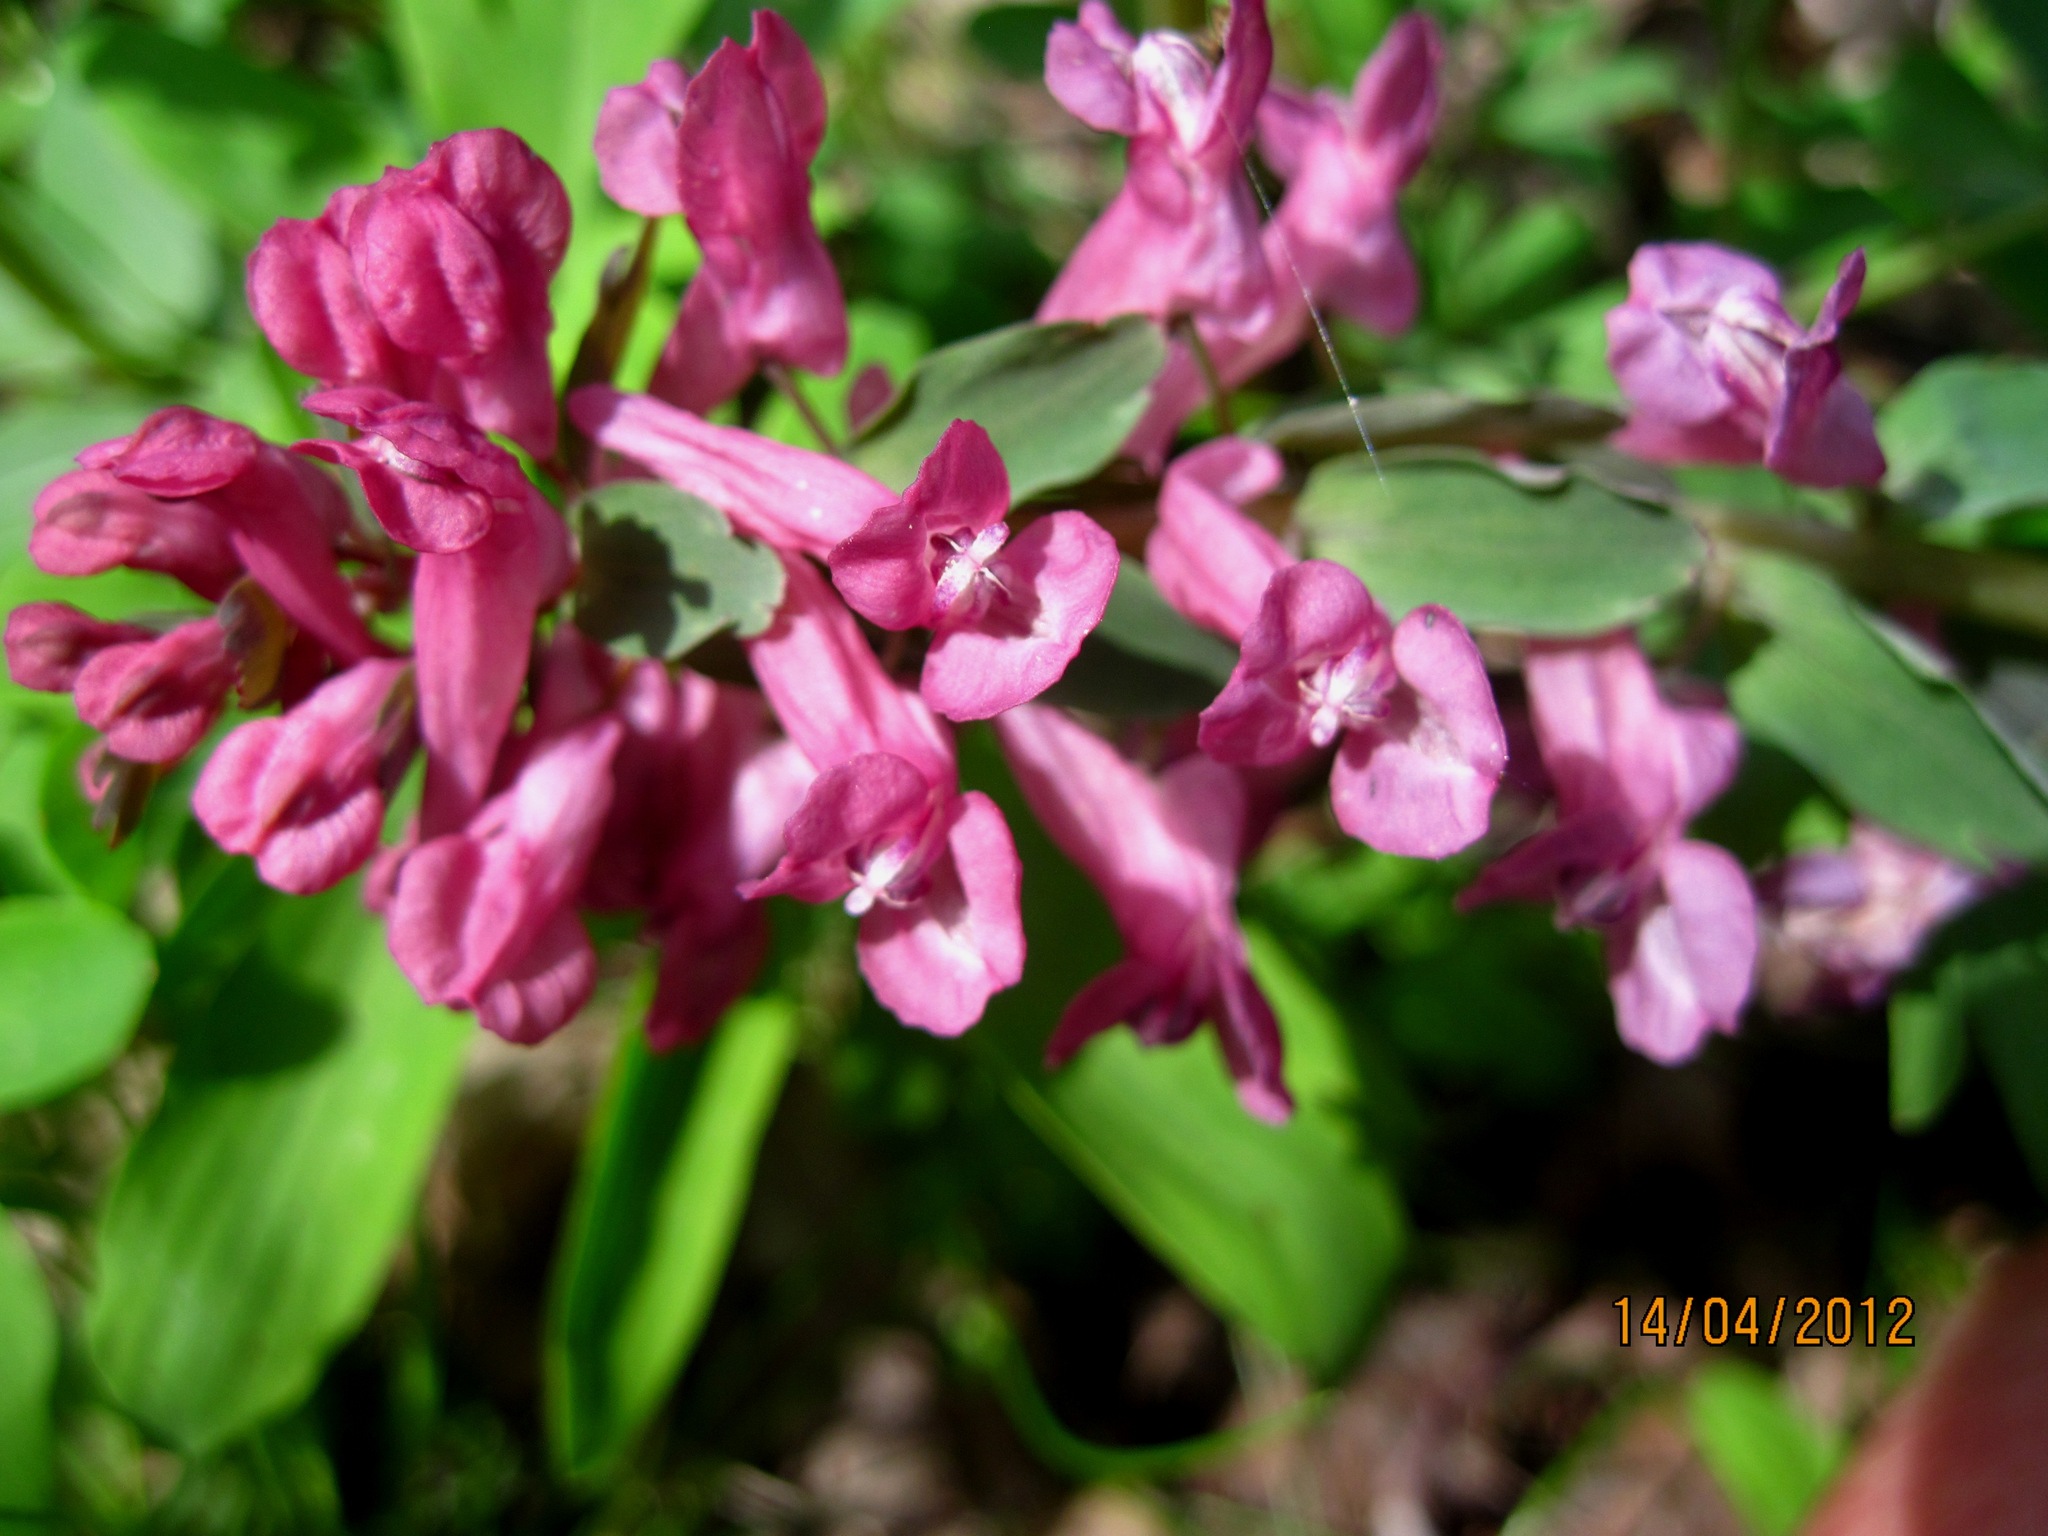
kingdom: Plantae
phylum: Tracheophyta
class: Magnoliopsida
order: Ranunculales
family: Papaveraceae
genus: Corydalis
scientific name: Corydalis solida
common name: Bird-in-a-bush
